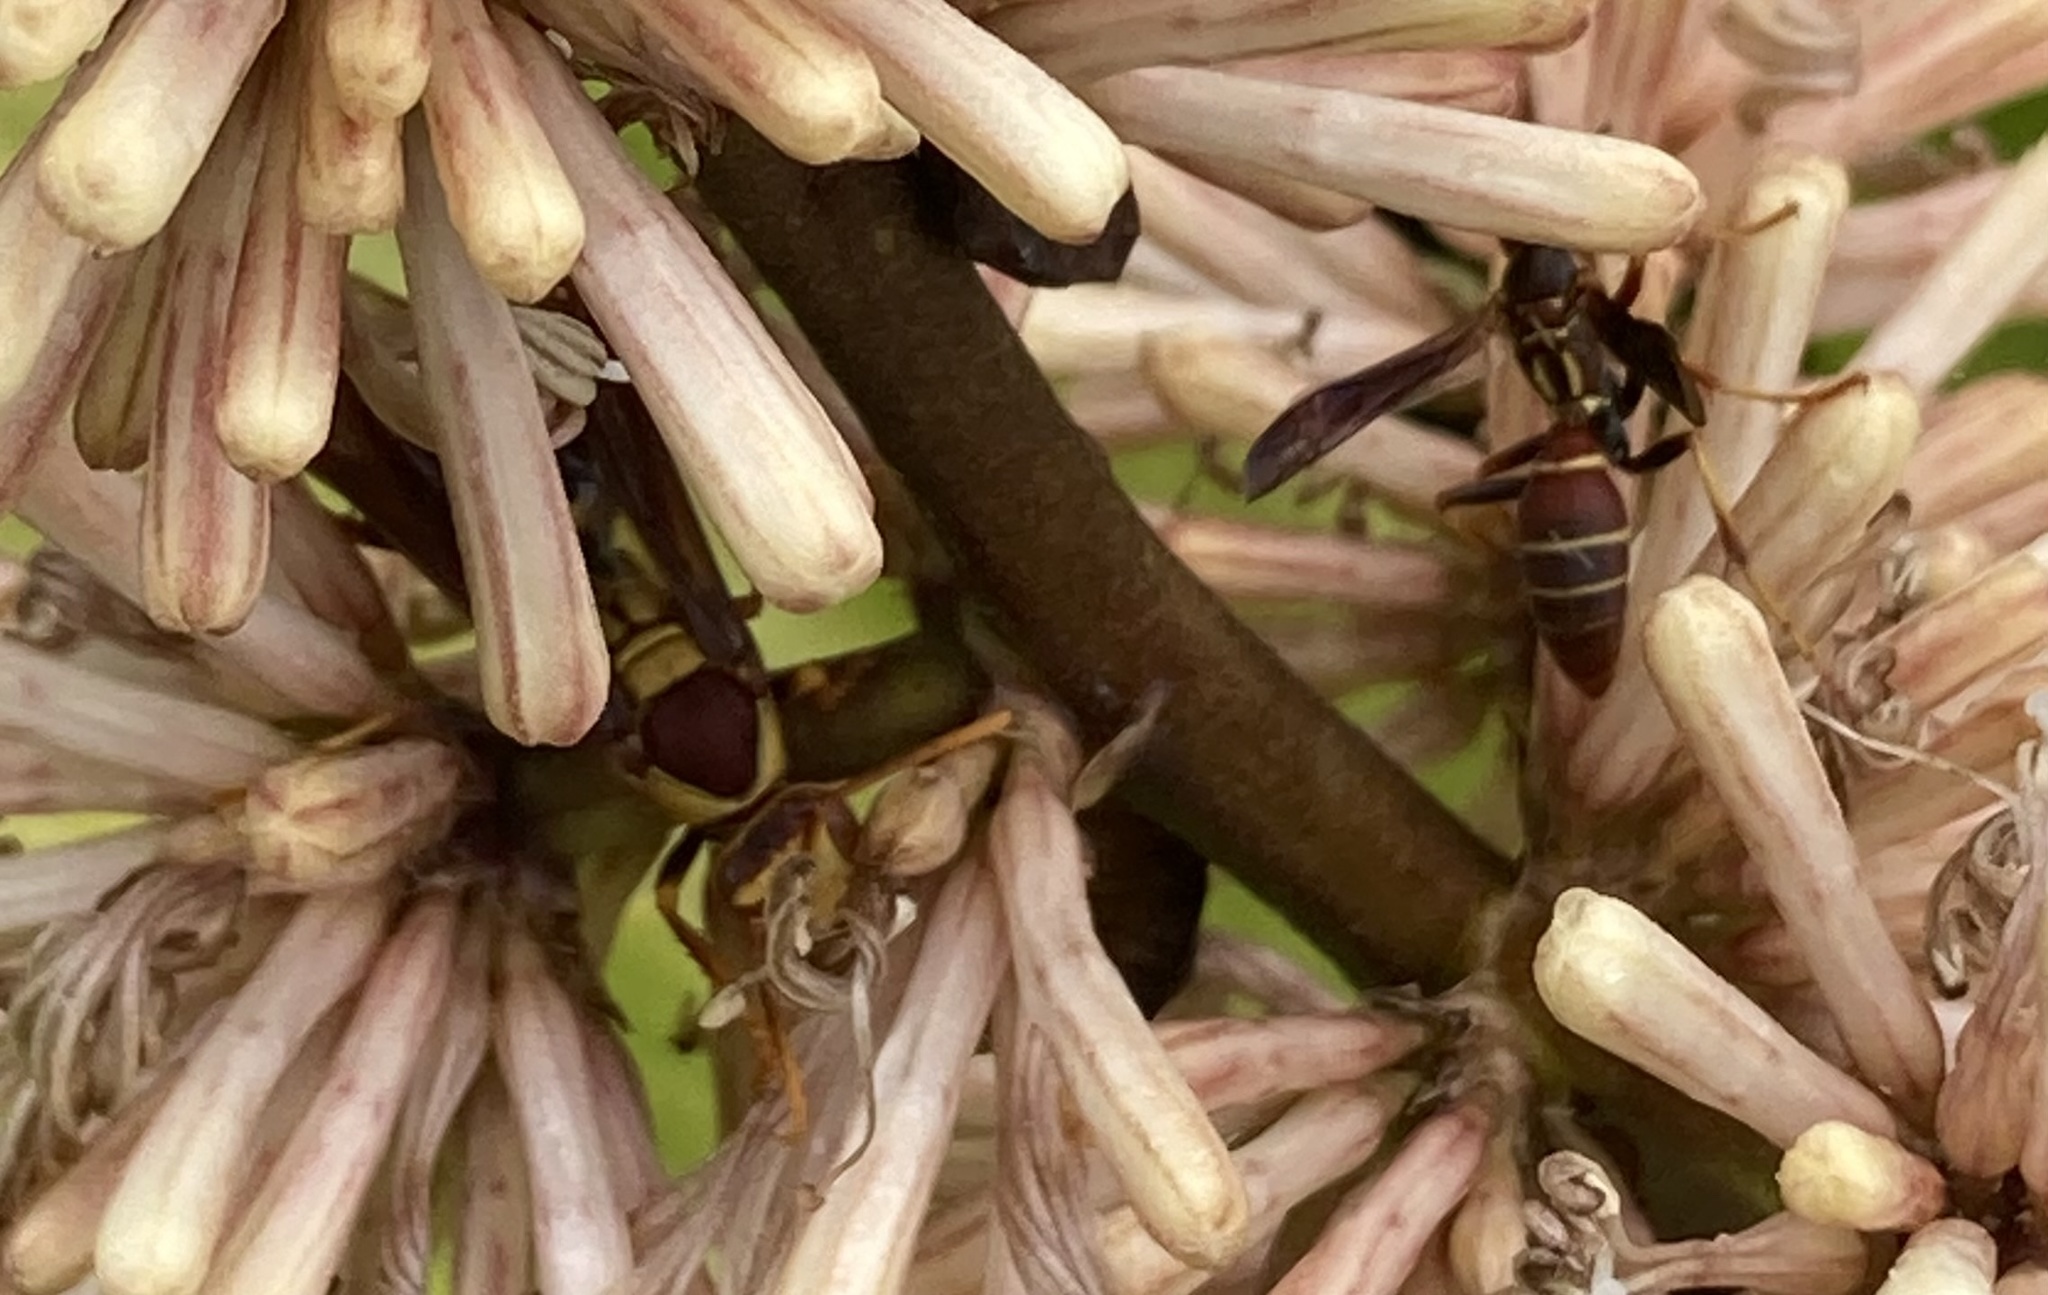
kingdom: Animalia
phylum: Arthropoda
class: Insecta
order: Hymenoptera
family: Eumenidae
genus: Polistes
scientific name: Polistes major
